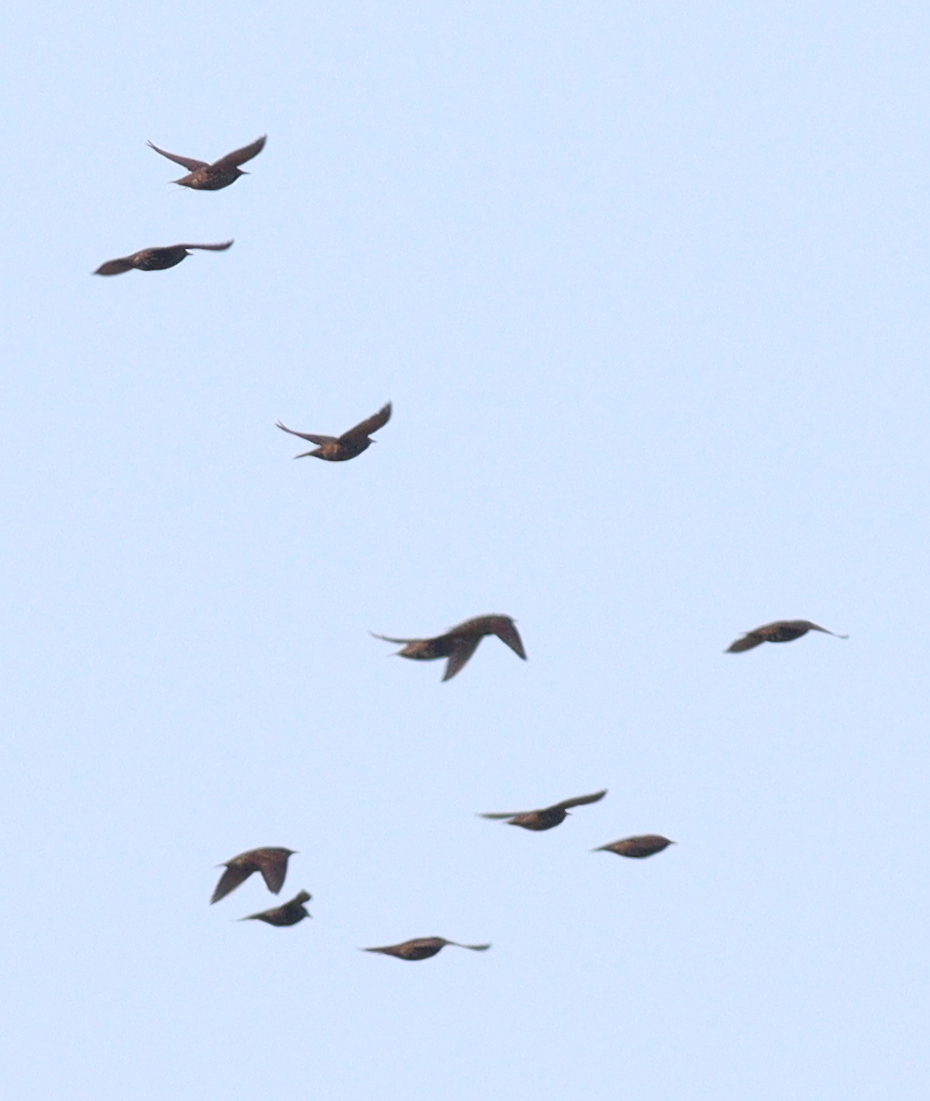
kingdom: Animalia
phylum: Chordata
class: Aves
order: Passeriformes
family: Sturnidae
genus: Sturnus
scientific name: Sturnus vulgaris
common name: Common starling
